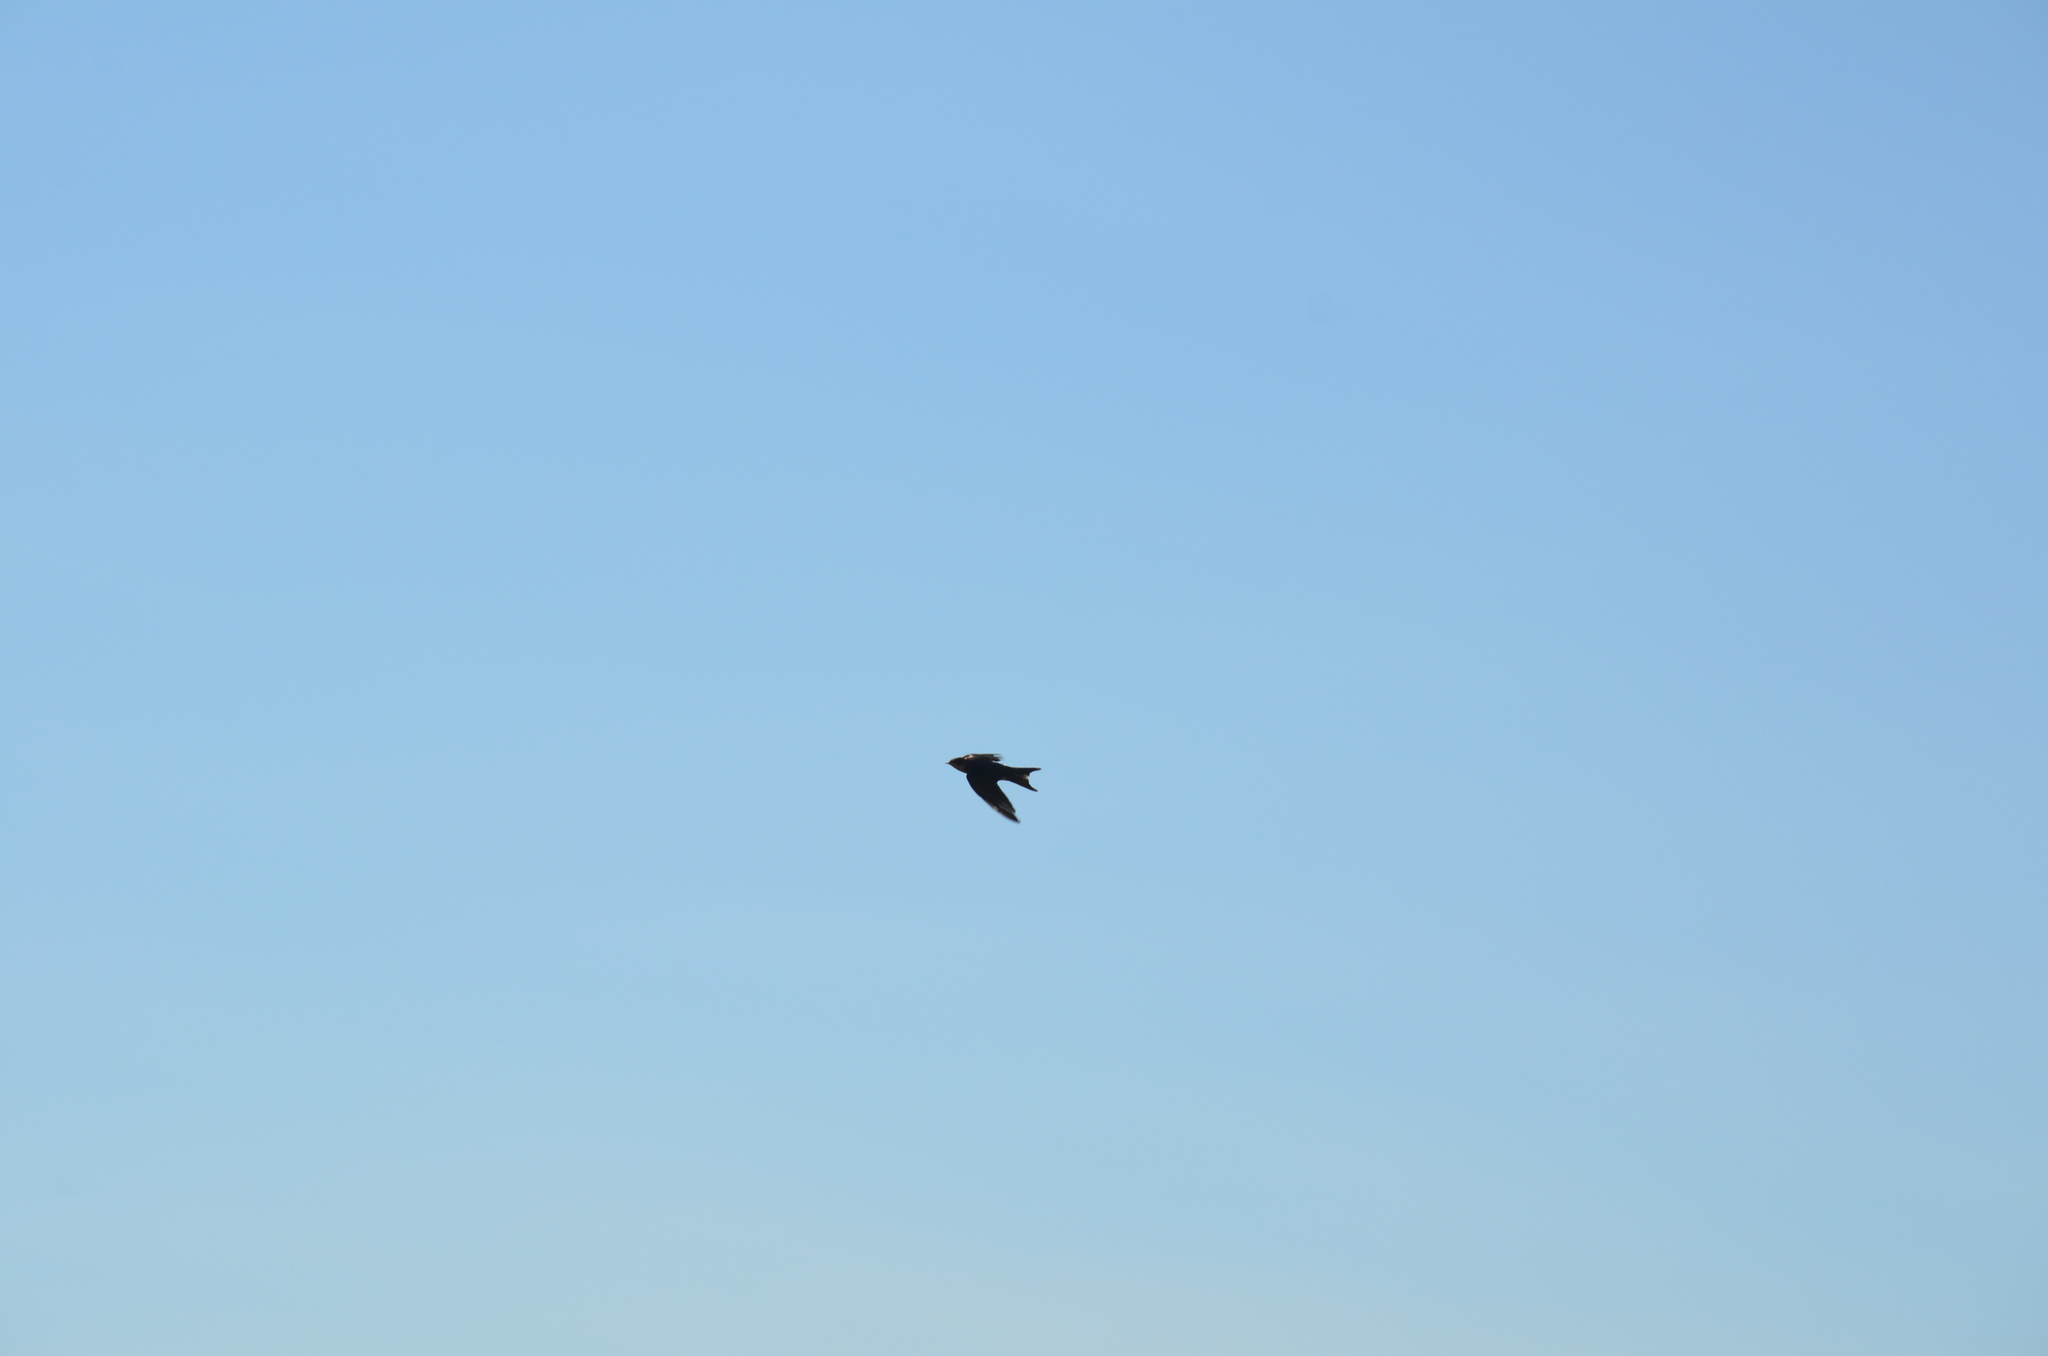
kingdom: Animalia
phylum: Chordata
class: Aves
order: Passeriformes
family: Hirundinidae
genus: Hirundo
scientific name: Hirundo rustica
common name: Barn swallow
